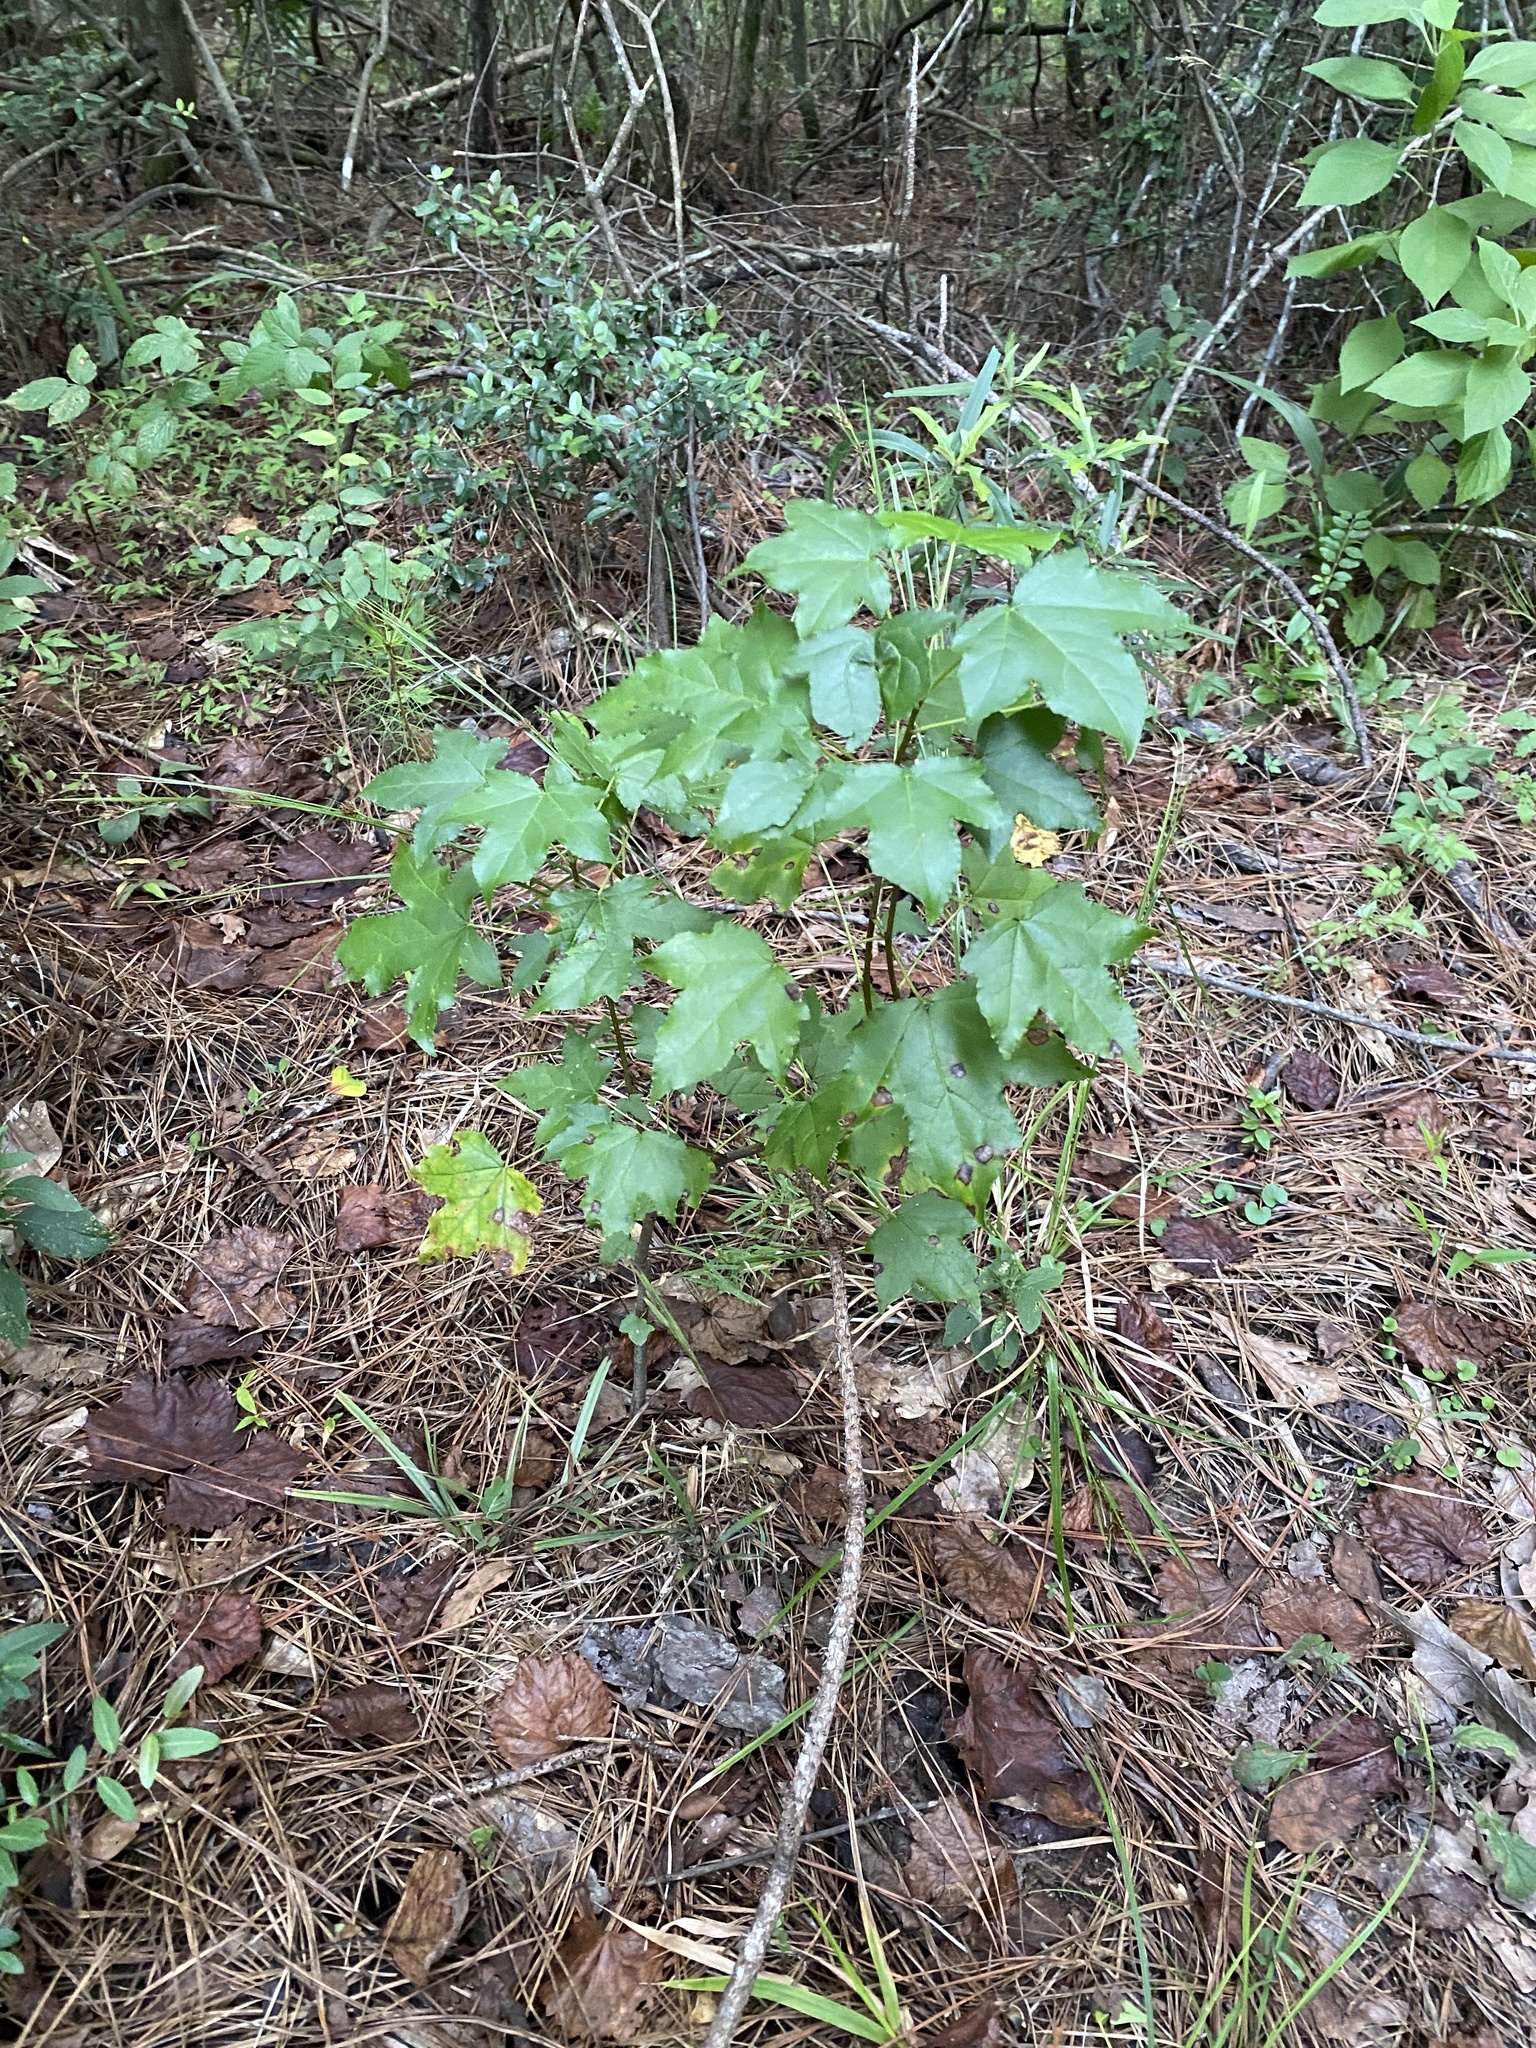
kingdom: Plantae
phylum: Tracheophyta
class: Magnoliopsida
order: Saxifragales
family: Altingiaceae
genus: Liquidambar
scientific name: Liquidambar styraciflua
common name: Sweet gum
